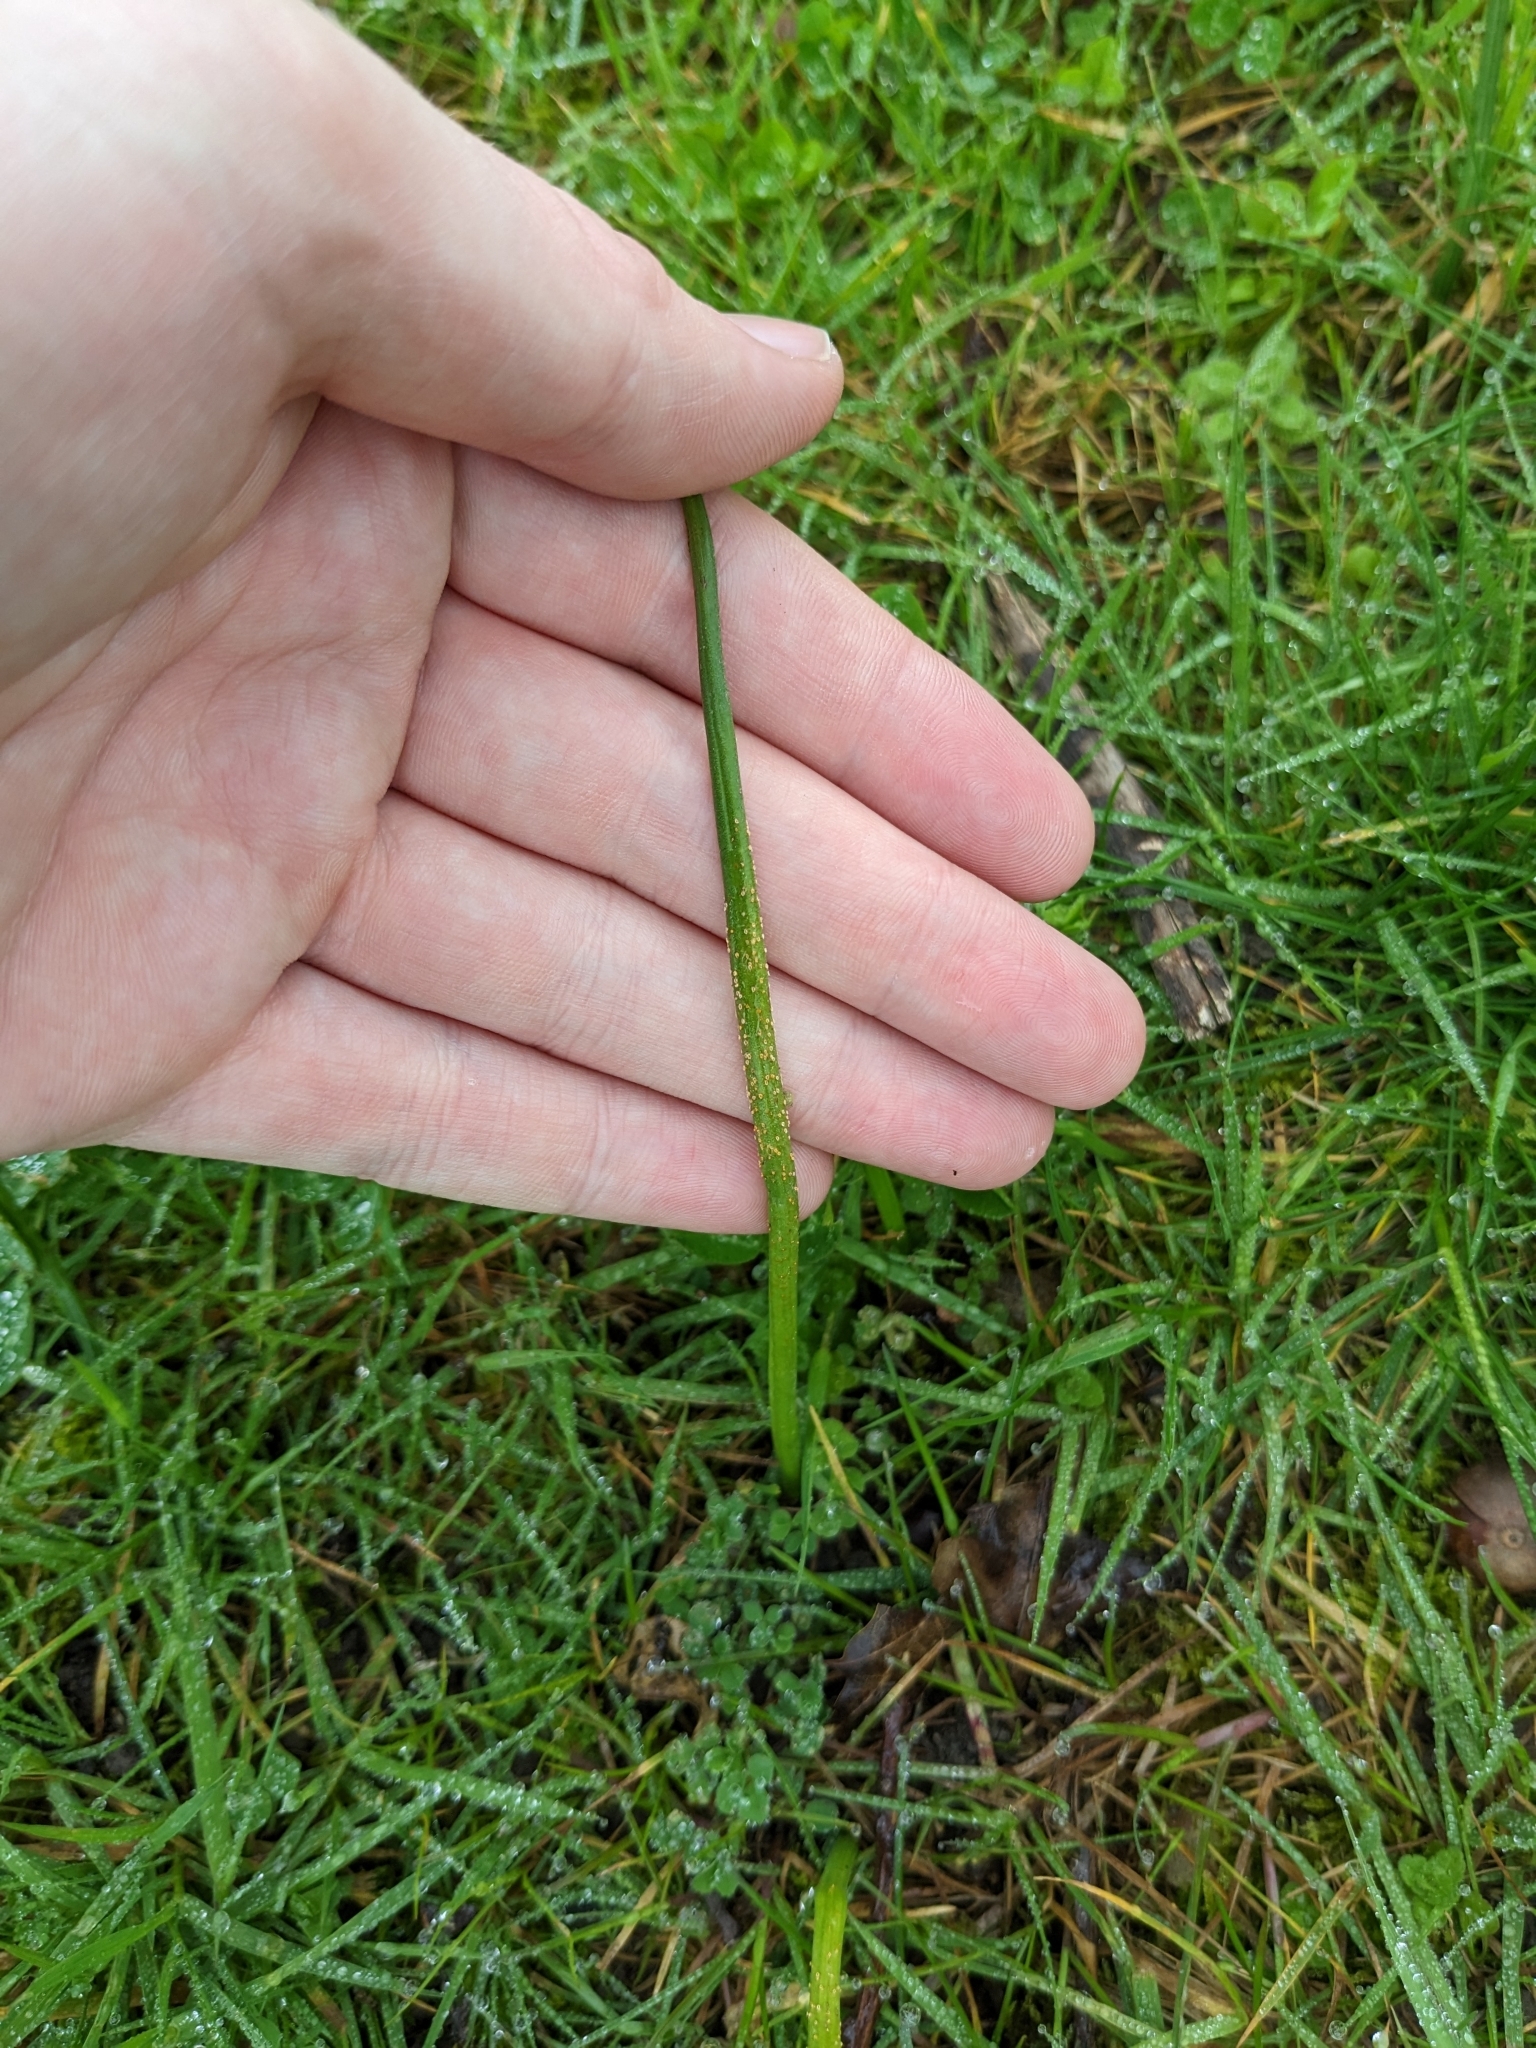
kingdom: Fungi
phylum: Basidiomycota
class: Pucciniomycetes
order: Pucciniales
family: Pucciniaceae
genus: Uromyces
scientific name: Uromyces microtidis
